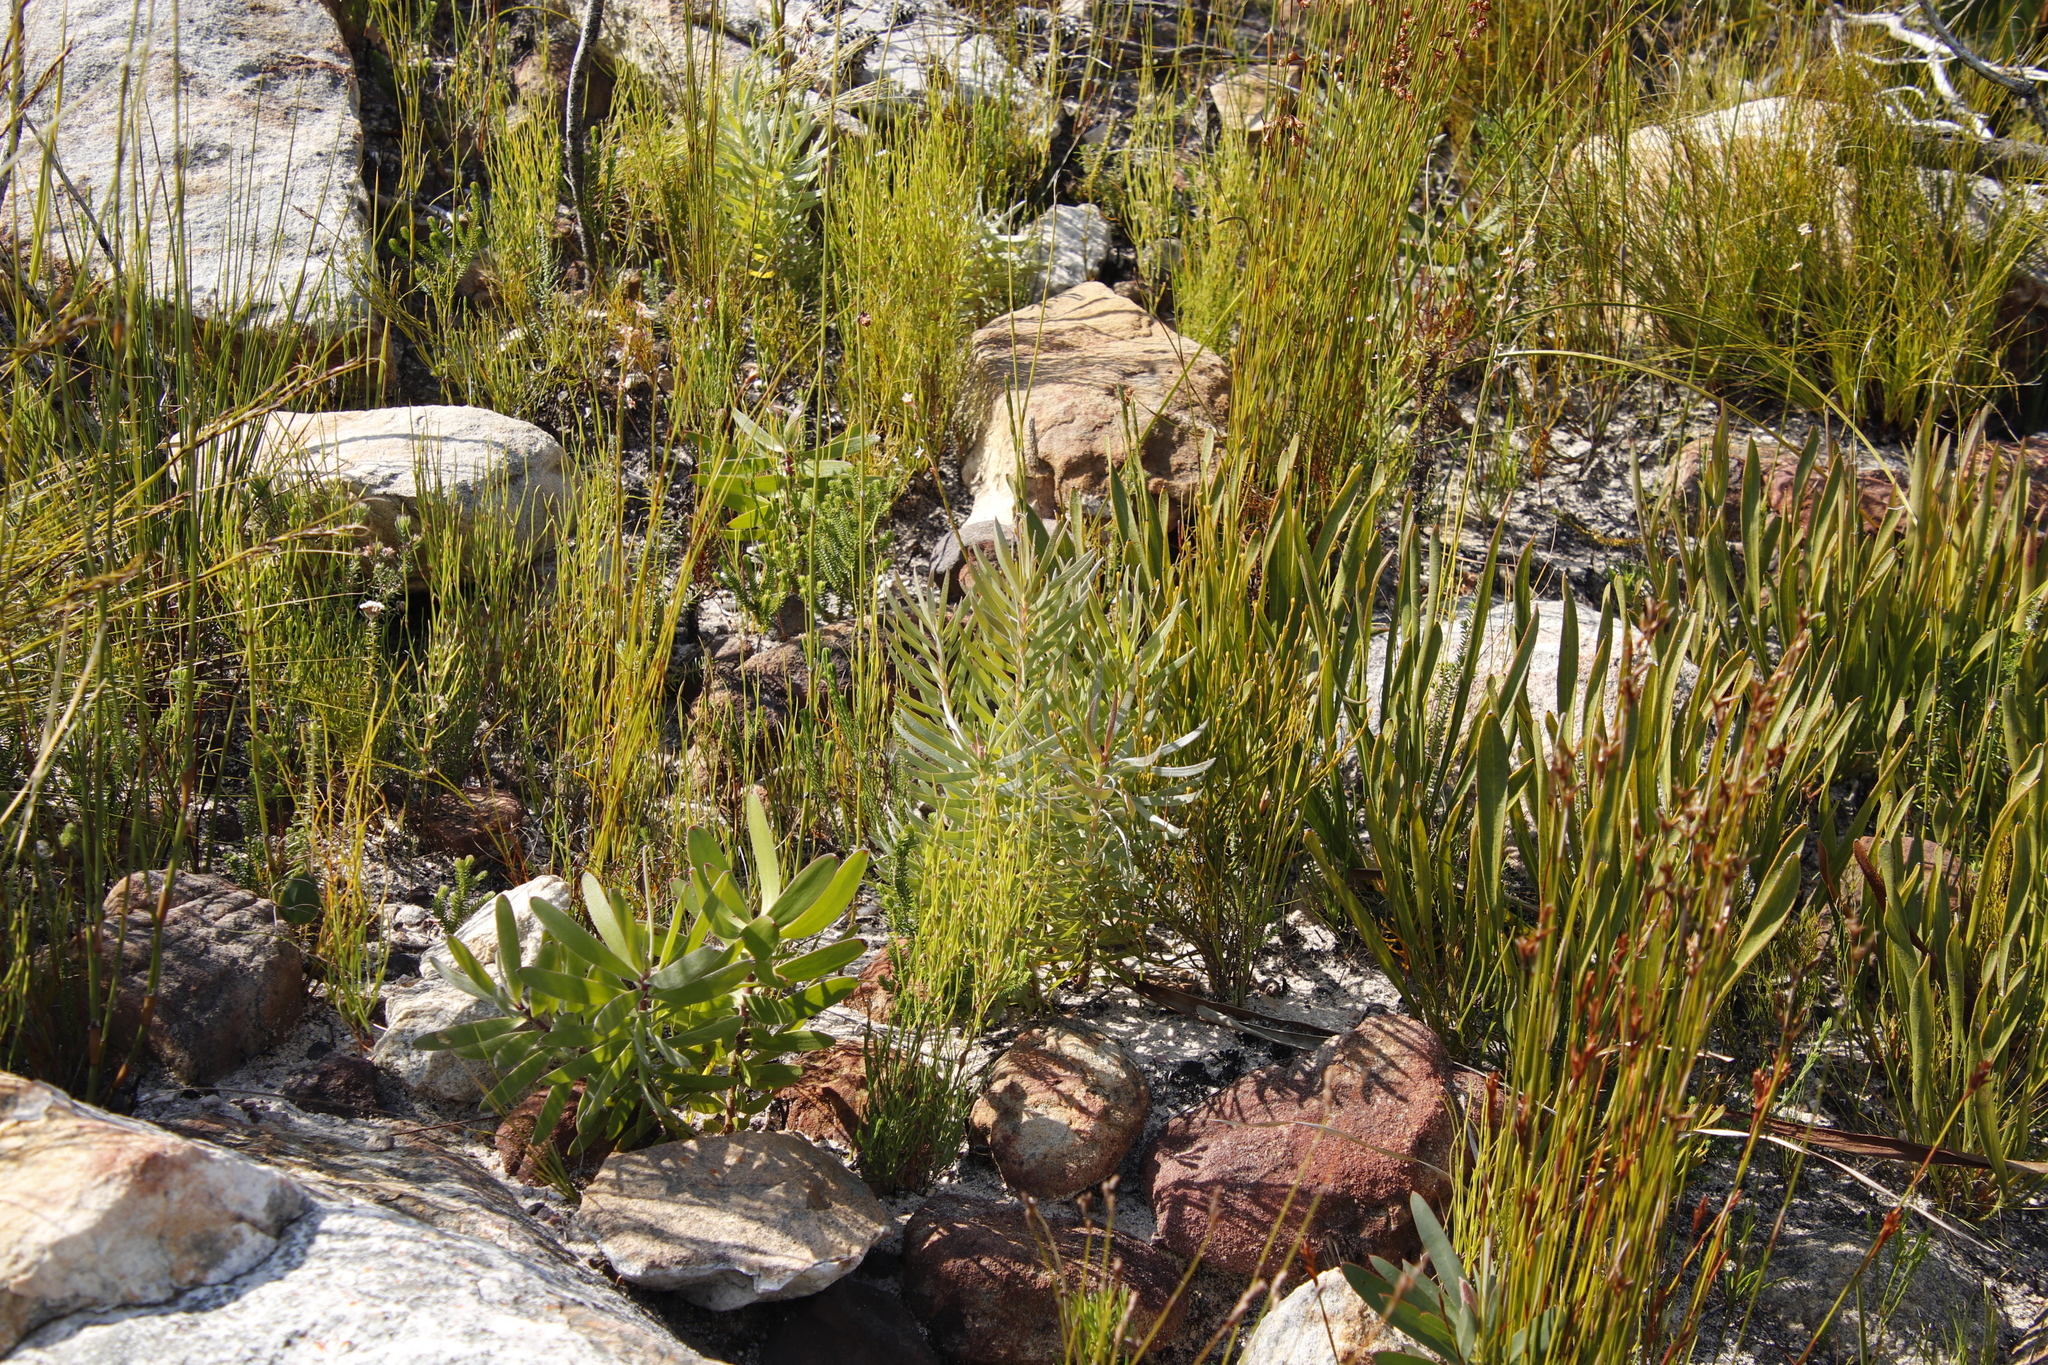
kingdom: Plantae
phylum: Tracheophyta
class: Magnoliopsida
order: Proteales
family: Proteaceae
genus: Protea
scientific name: Protea scabra
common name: Sandpaper-leaf sugarbush
